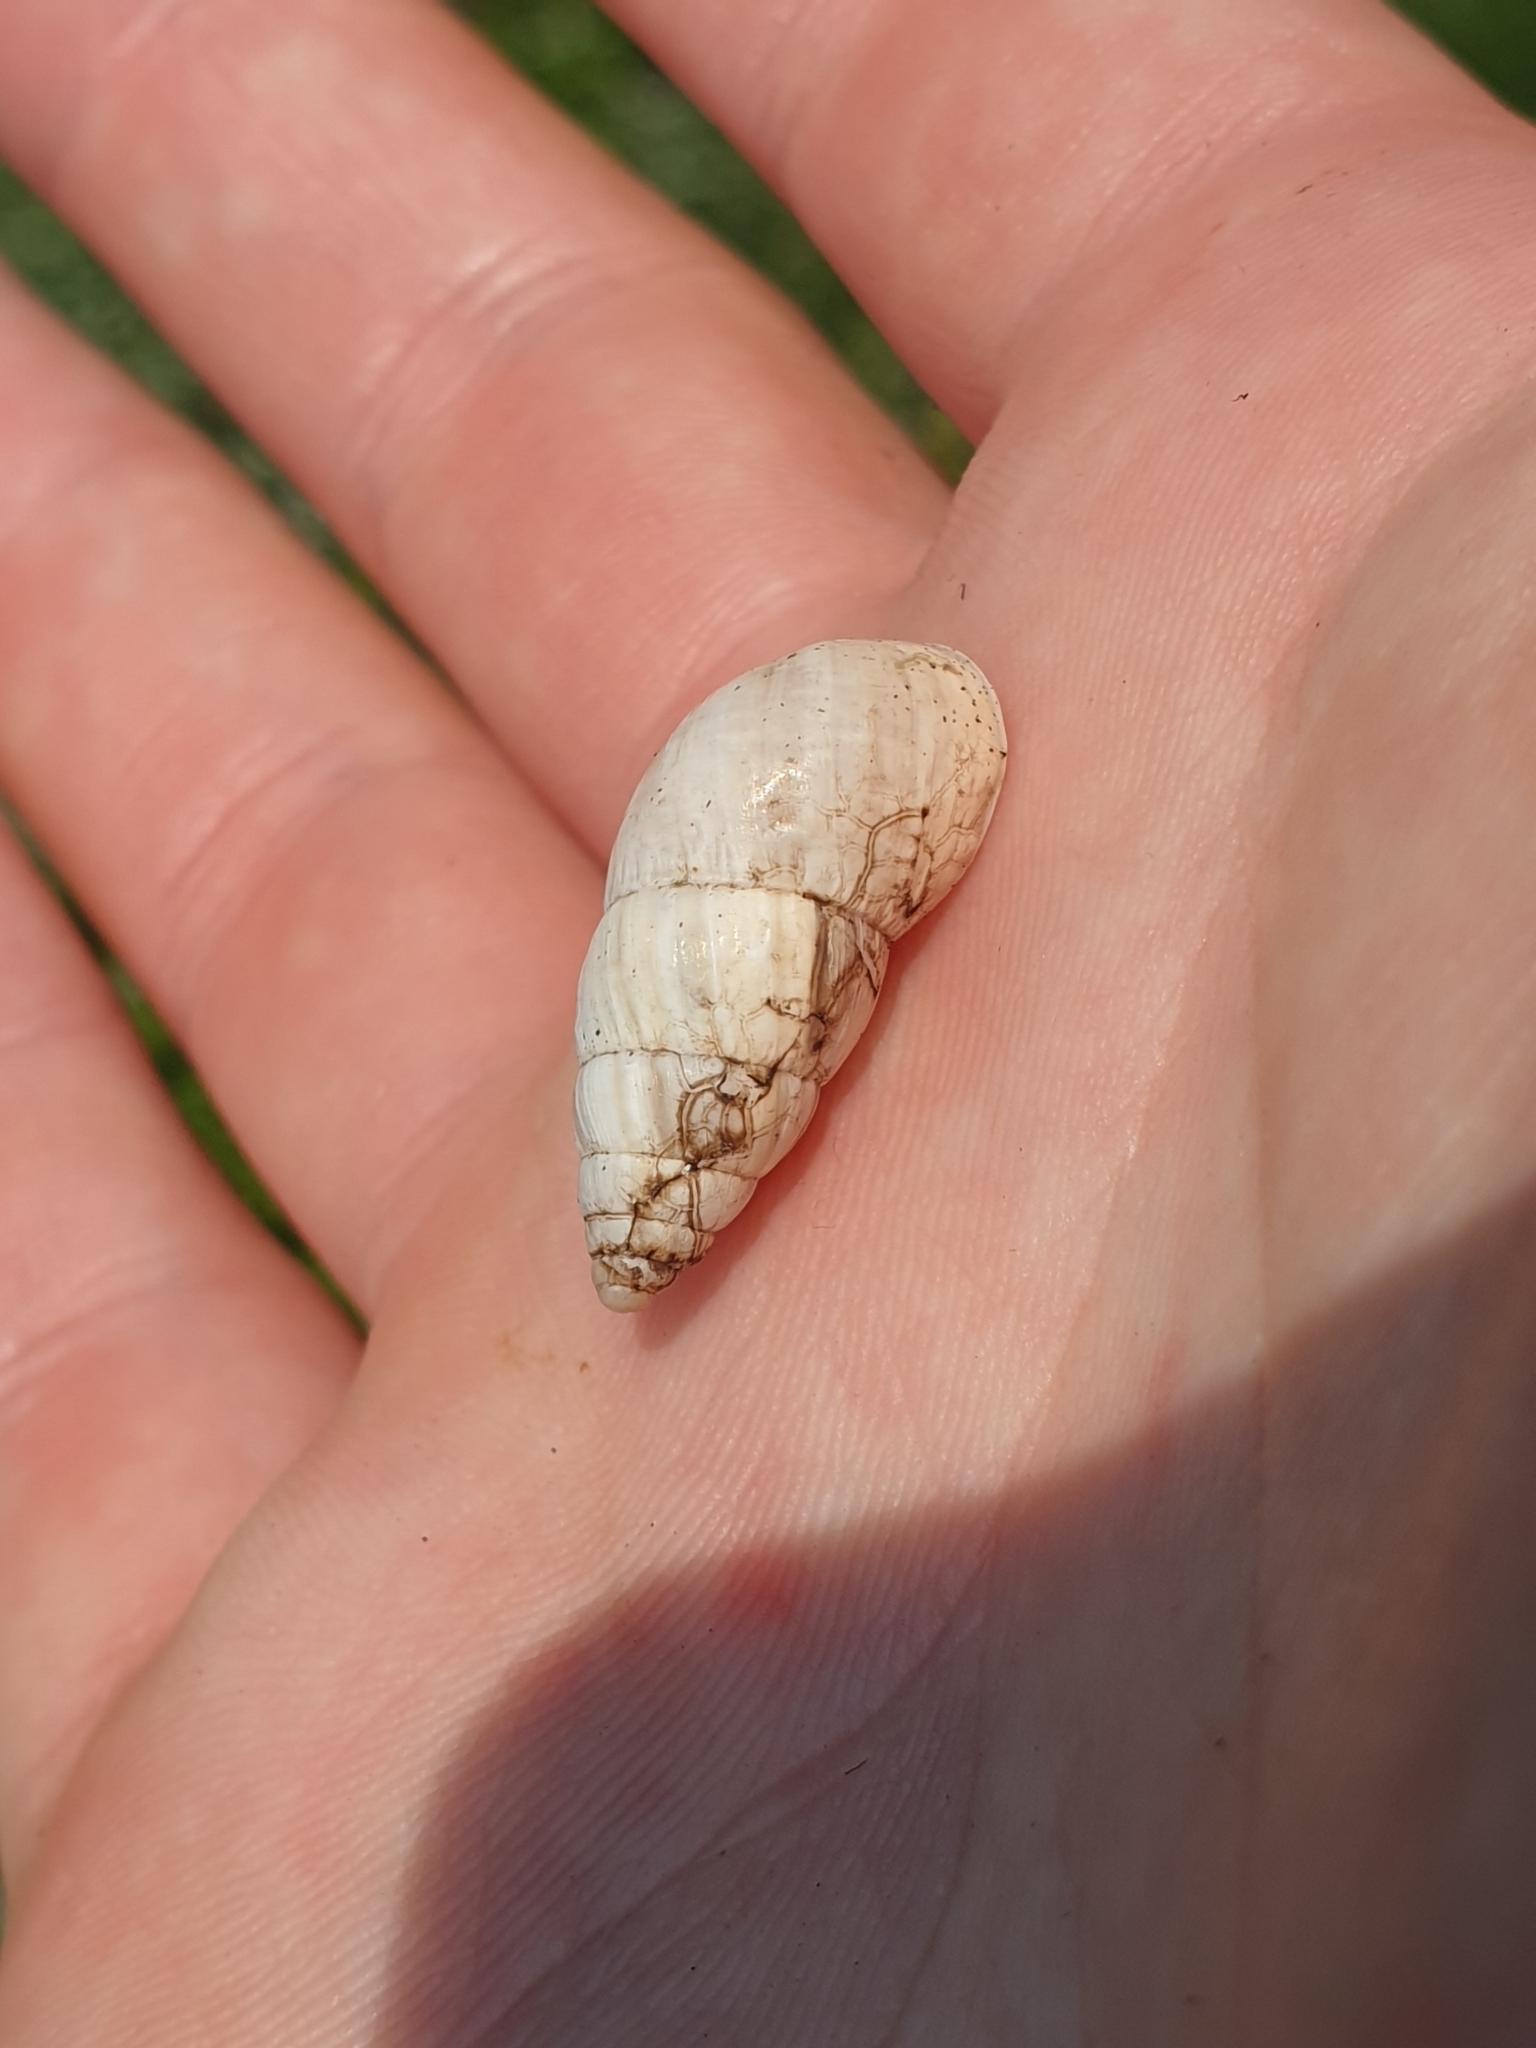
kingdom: Animalia
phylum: Mollusca
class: Gastropoda
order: Stylommatophora
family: Enidae
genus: Zebrina
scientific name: Zebrina detrita
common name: Large bulin
